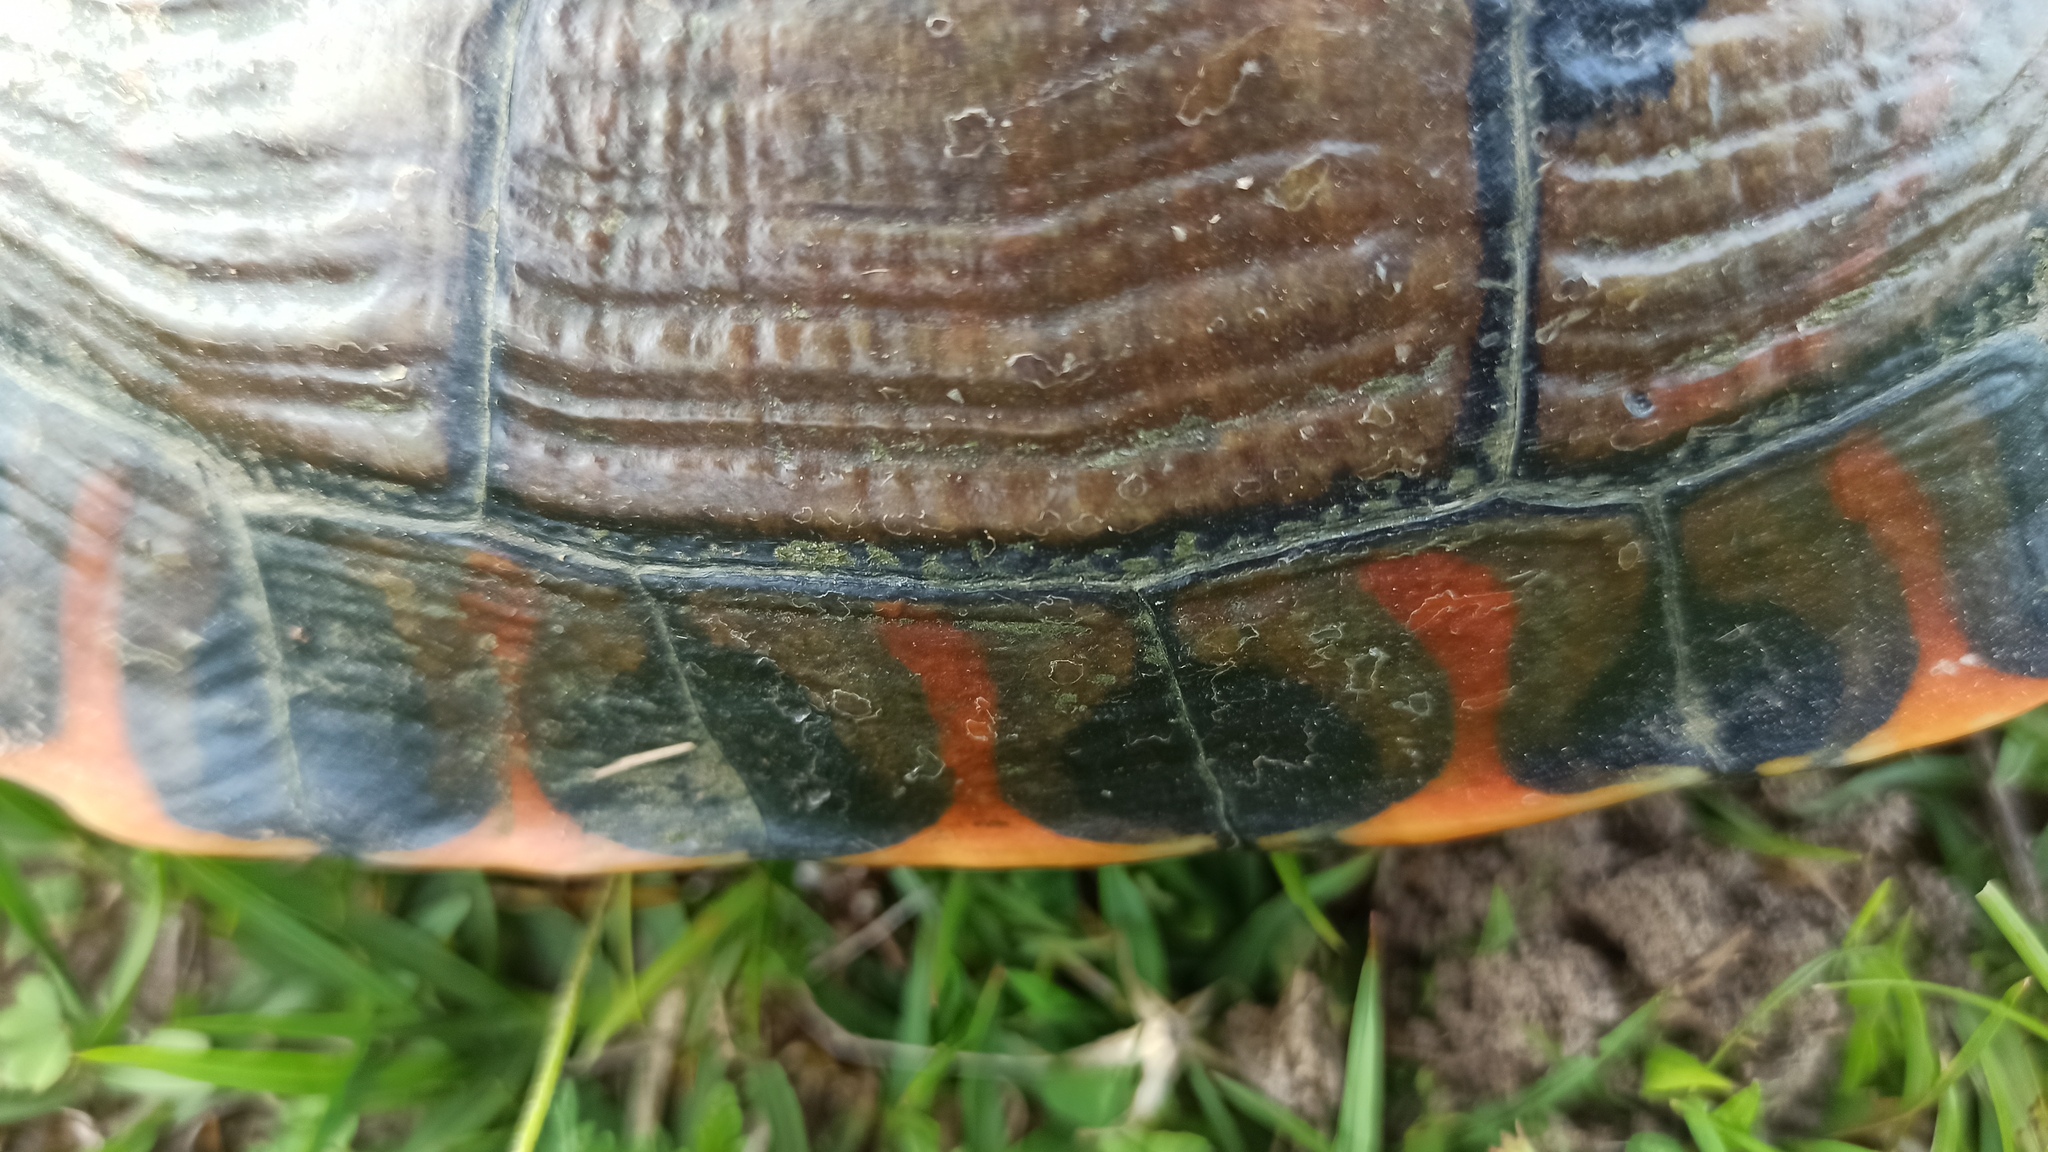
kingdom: Animalia
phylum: Chordata
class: Testudines
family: Emydidae
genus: Trachemys
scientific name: Trachemys dorbigni
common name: Black-bellied slider
